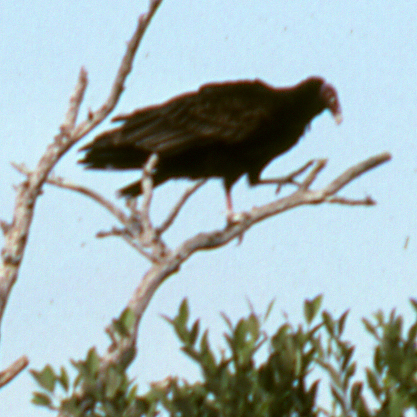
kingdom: Animalia
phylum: Chordata
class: Aves
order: Accipitriformes
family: Cathartidae
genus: Cathartes
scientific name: Cathartes aura
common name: Turkey vulture
